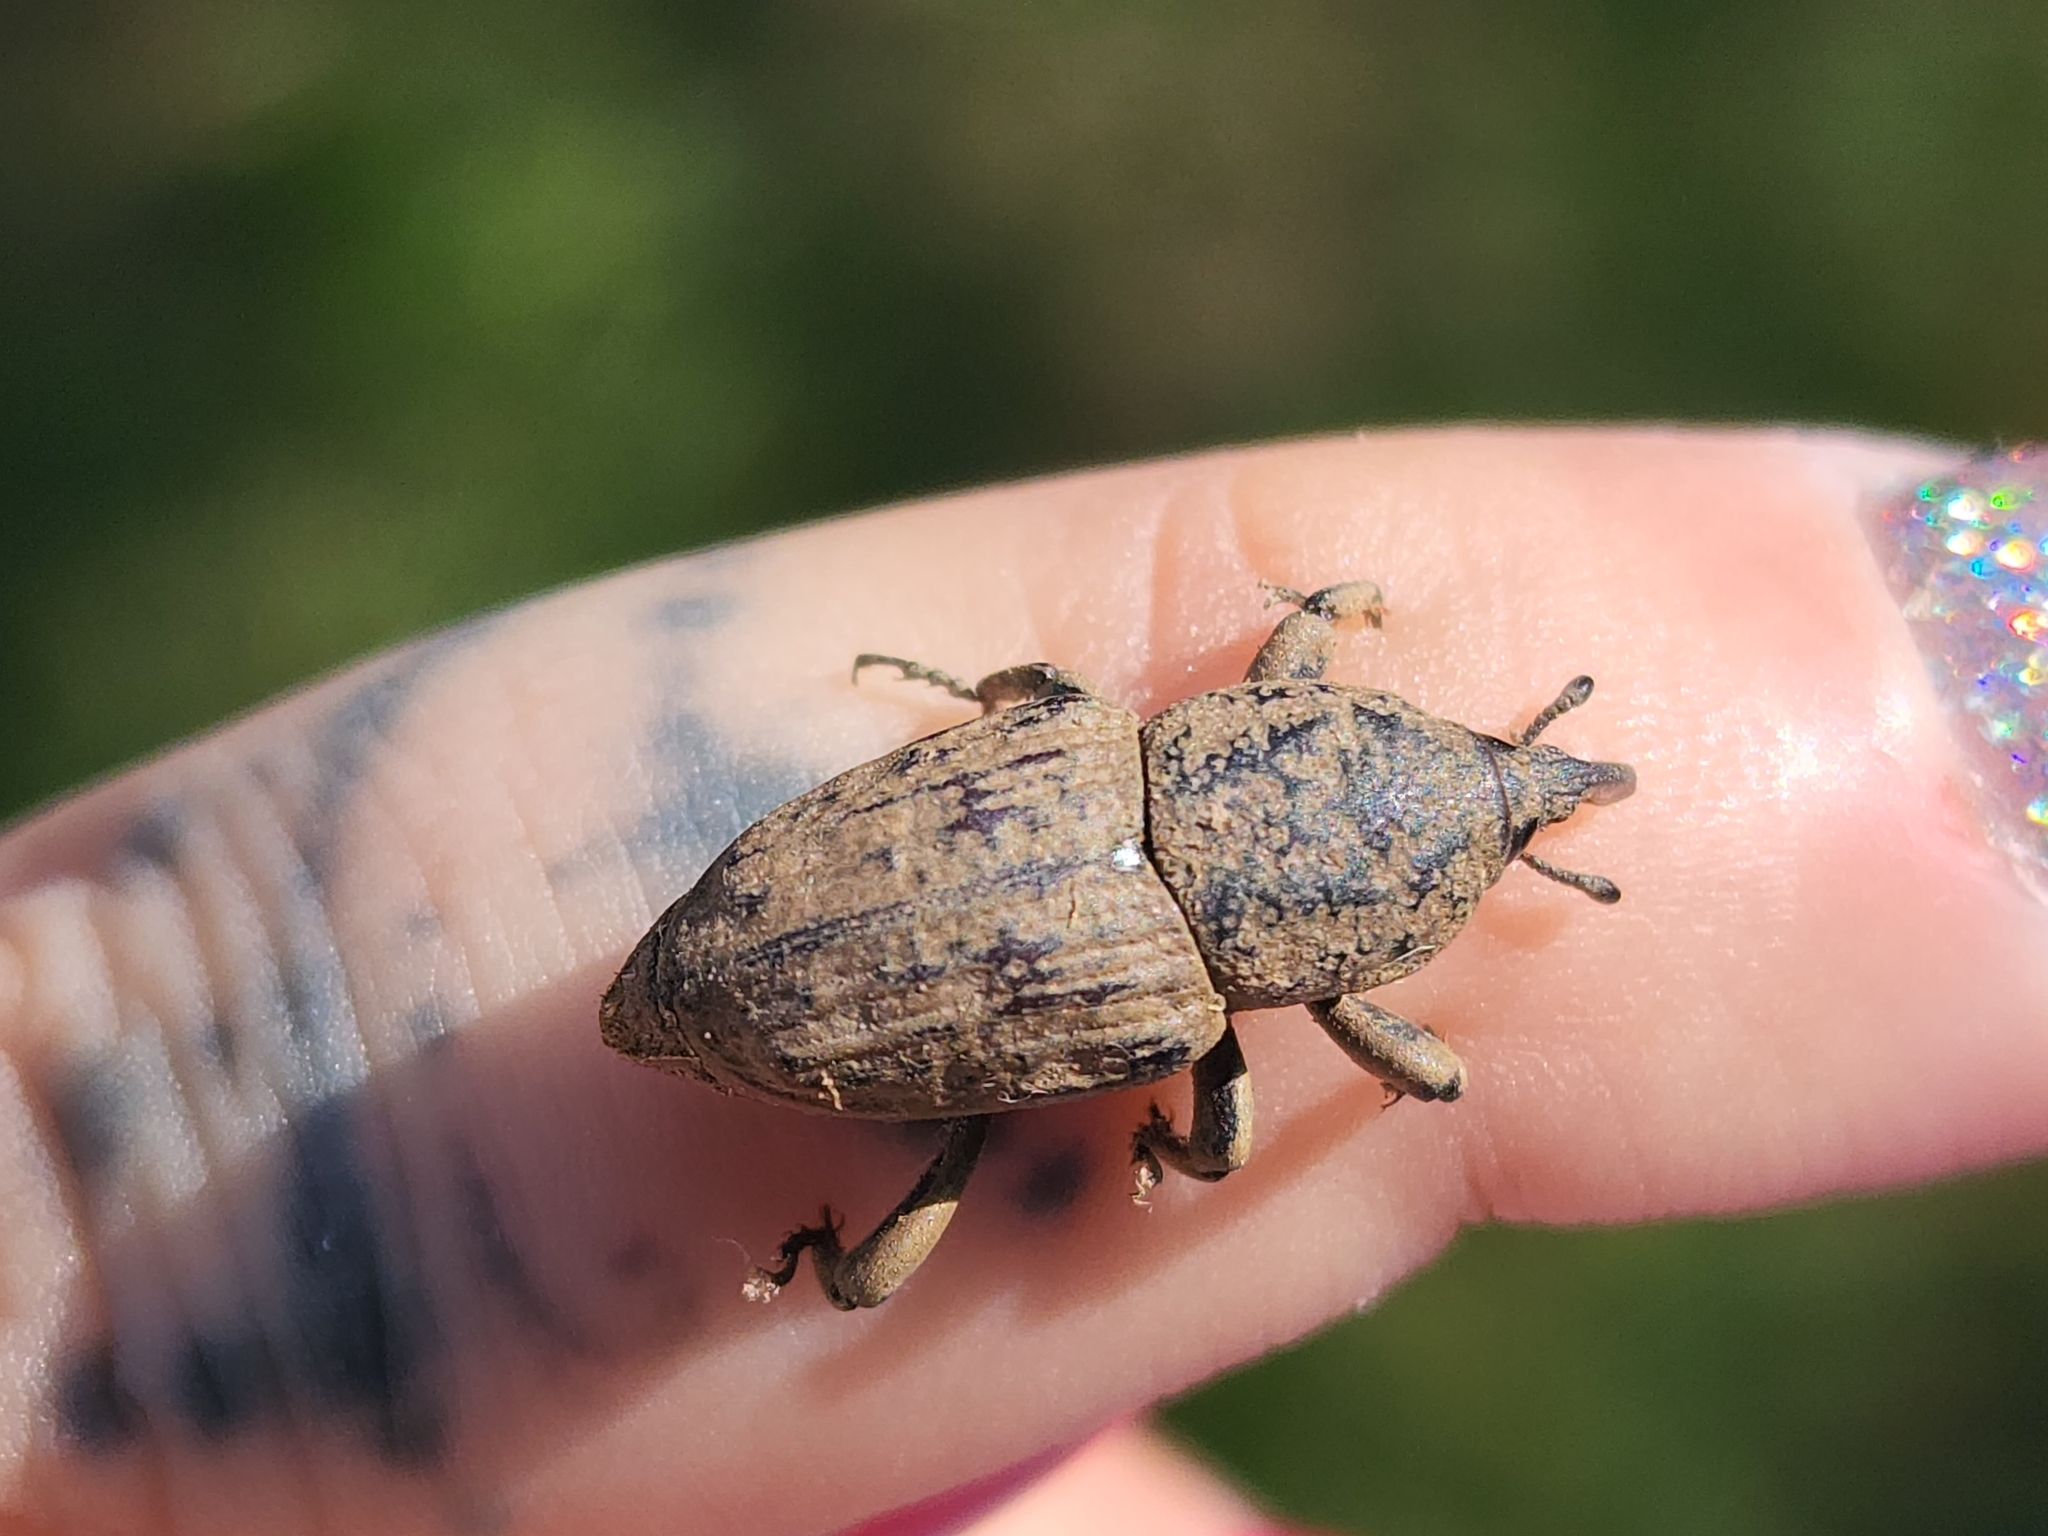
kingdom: Animalia
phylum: Arthropoda
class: Insecta
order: Coleoptera
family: Dryophthoridae
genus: Sphenophorus
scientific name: Sphenophorus rusticus
